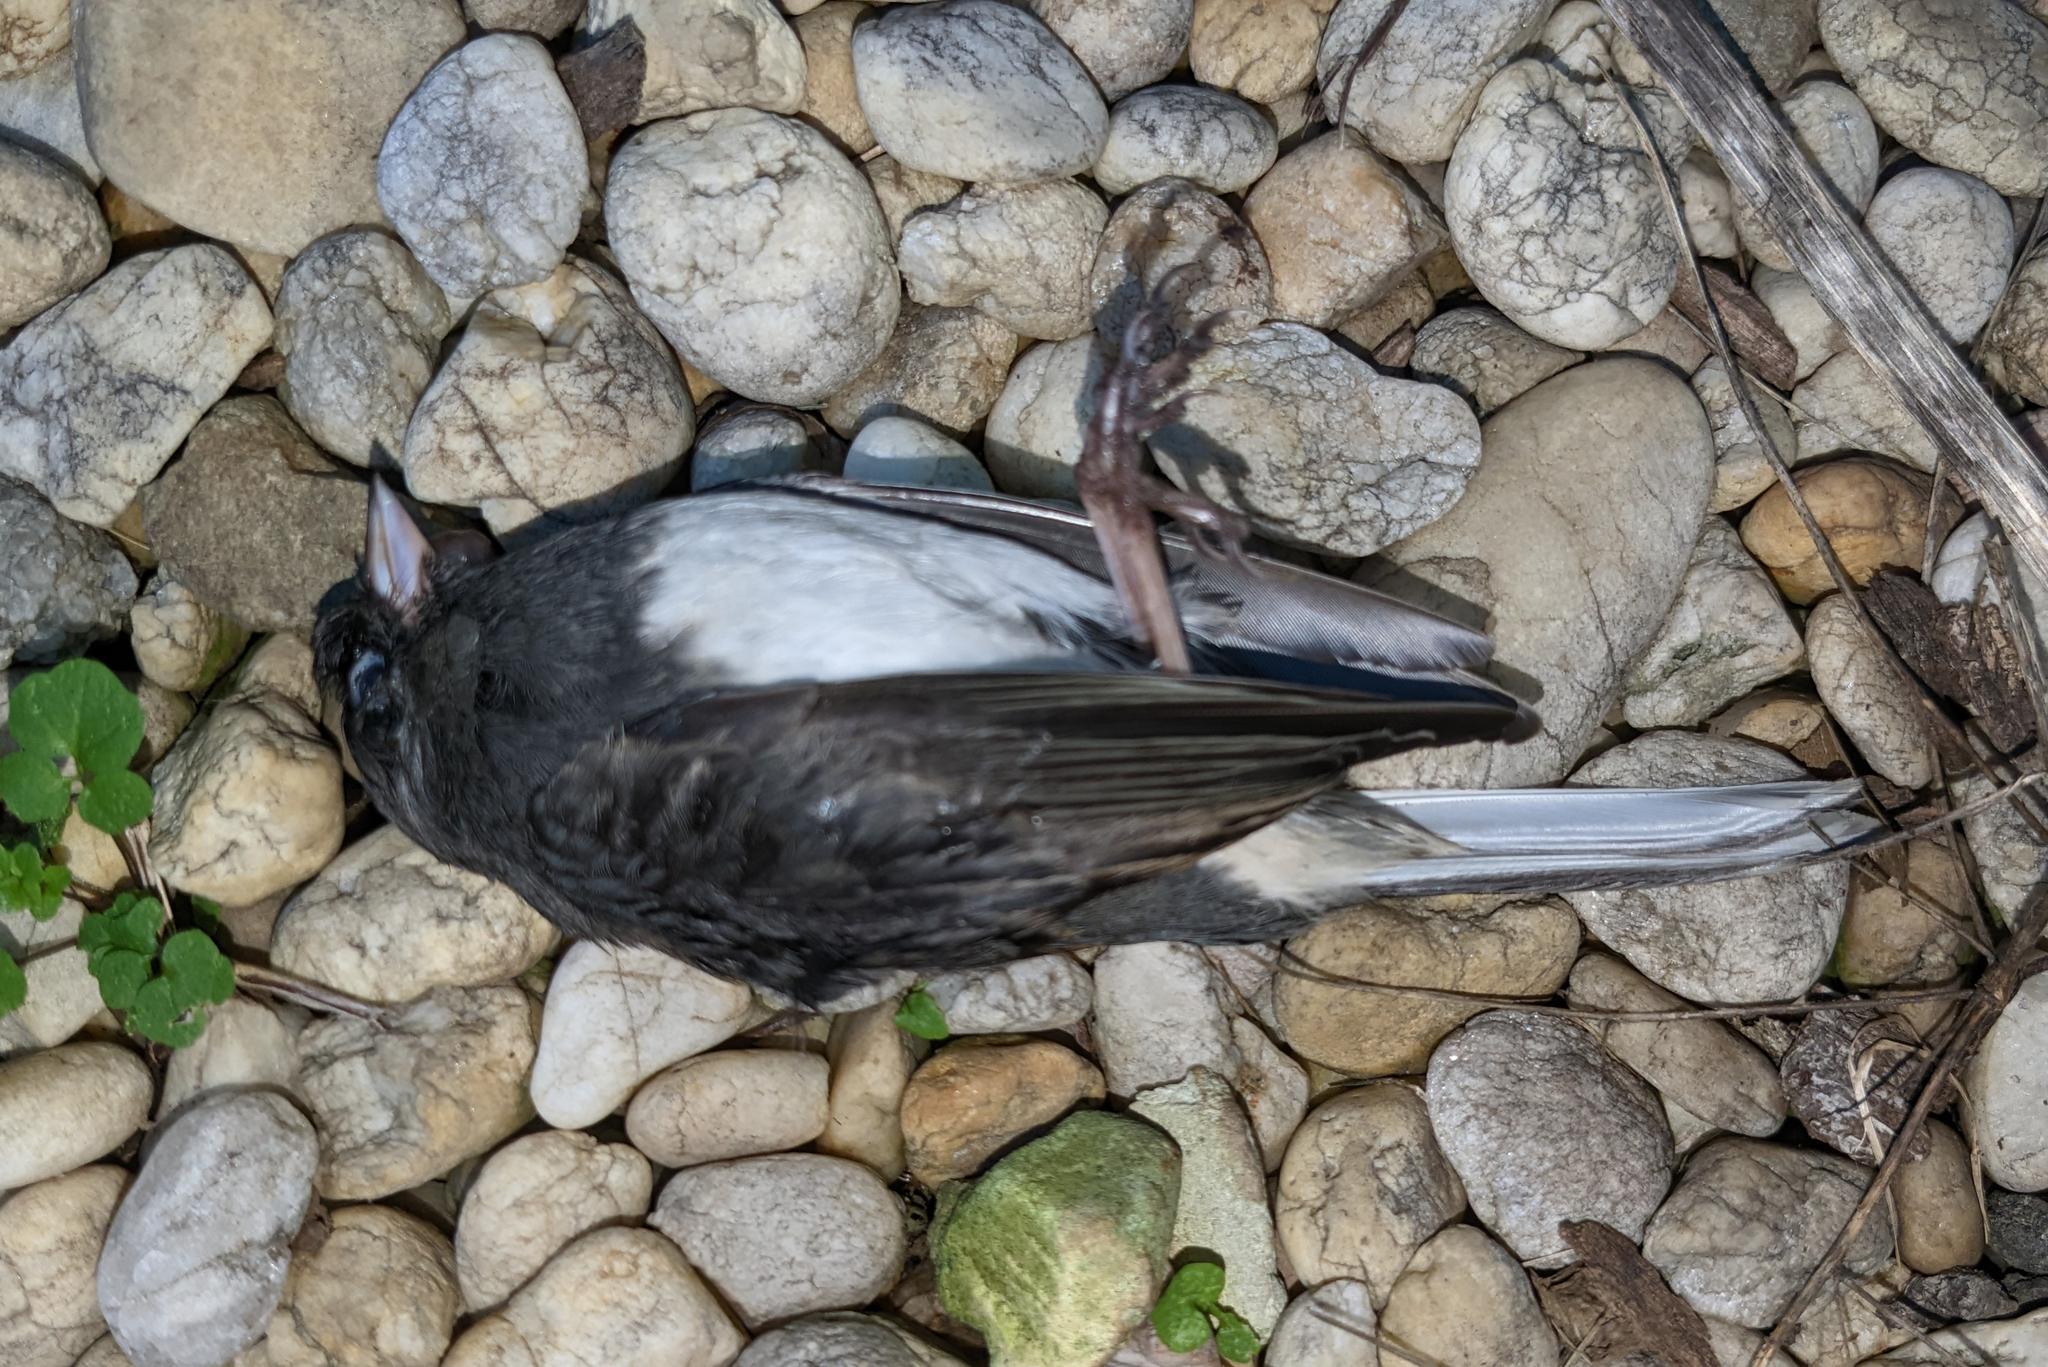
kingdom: Animalia
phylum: Chordata
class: Aves
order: Passeriformes
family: Passerellidae
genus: Junco
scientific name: Junco hyemalis
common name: Dark-eyed junco
